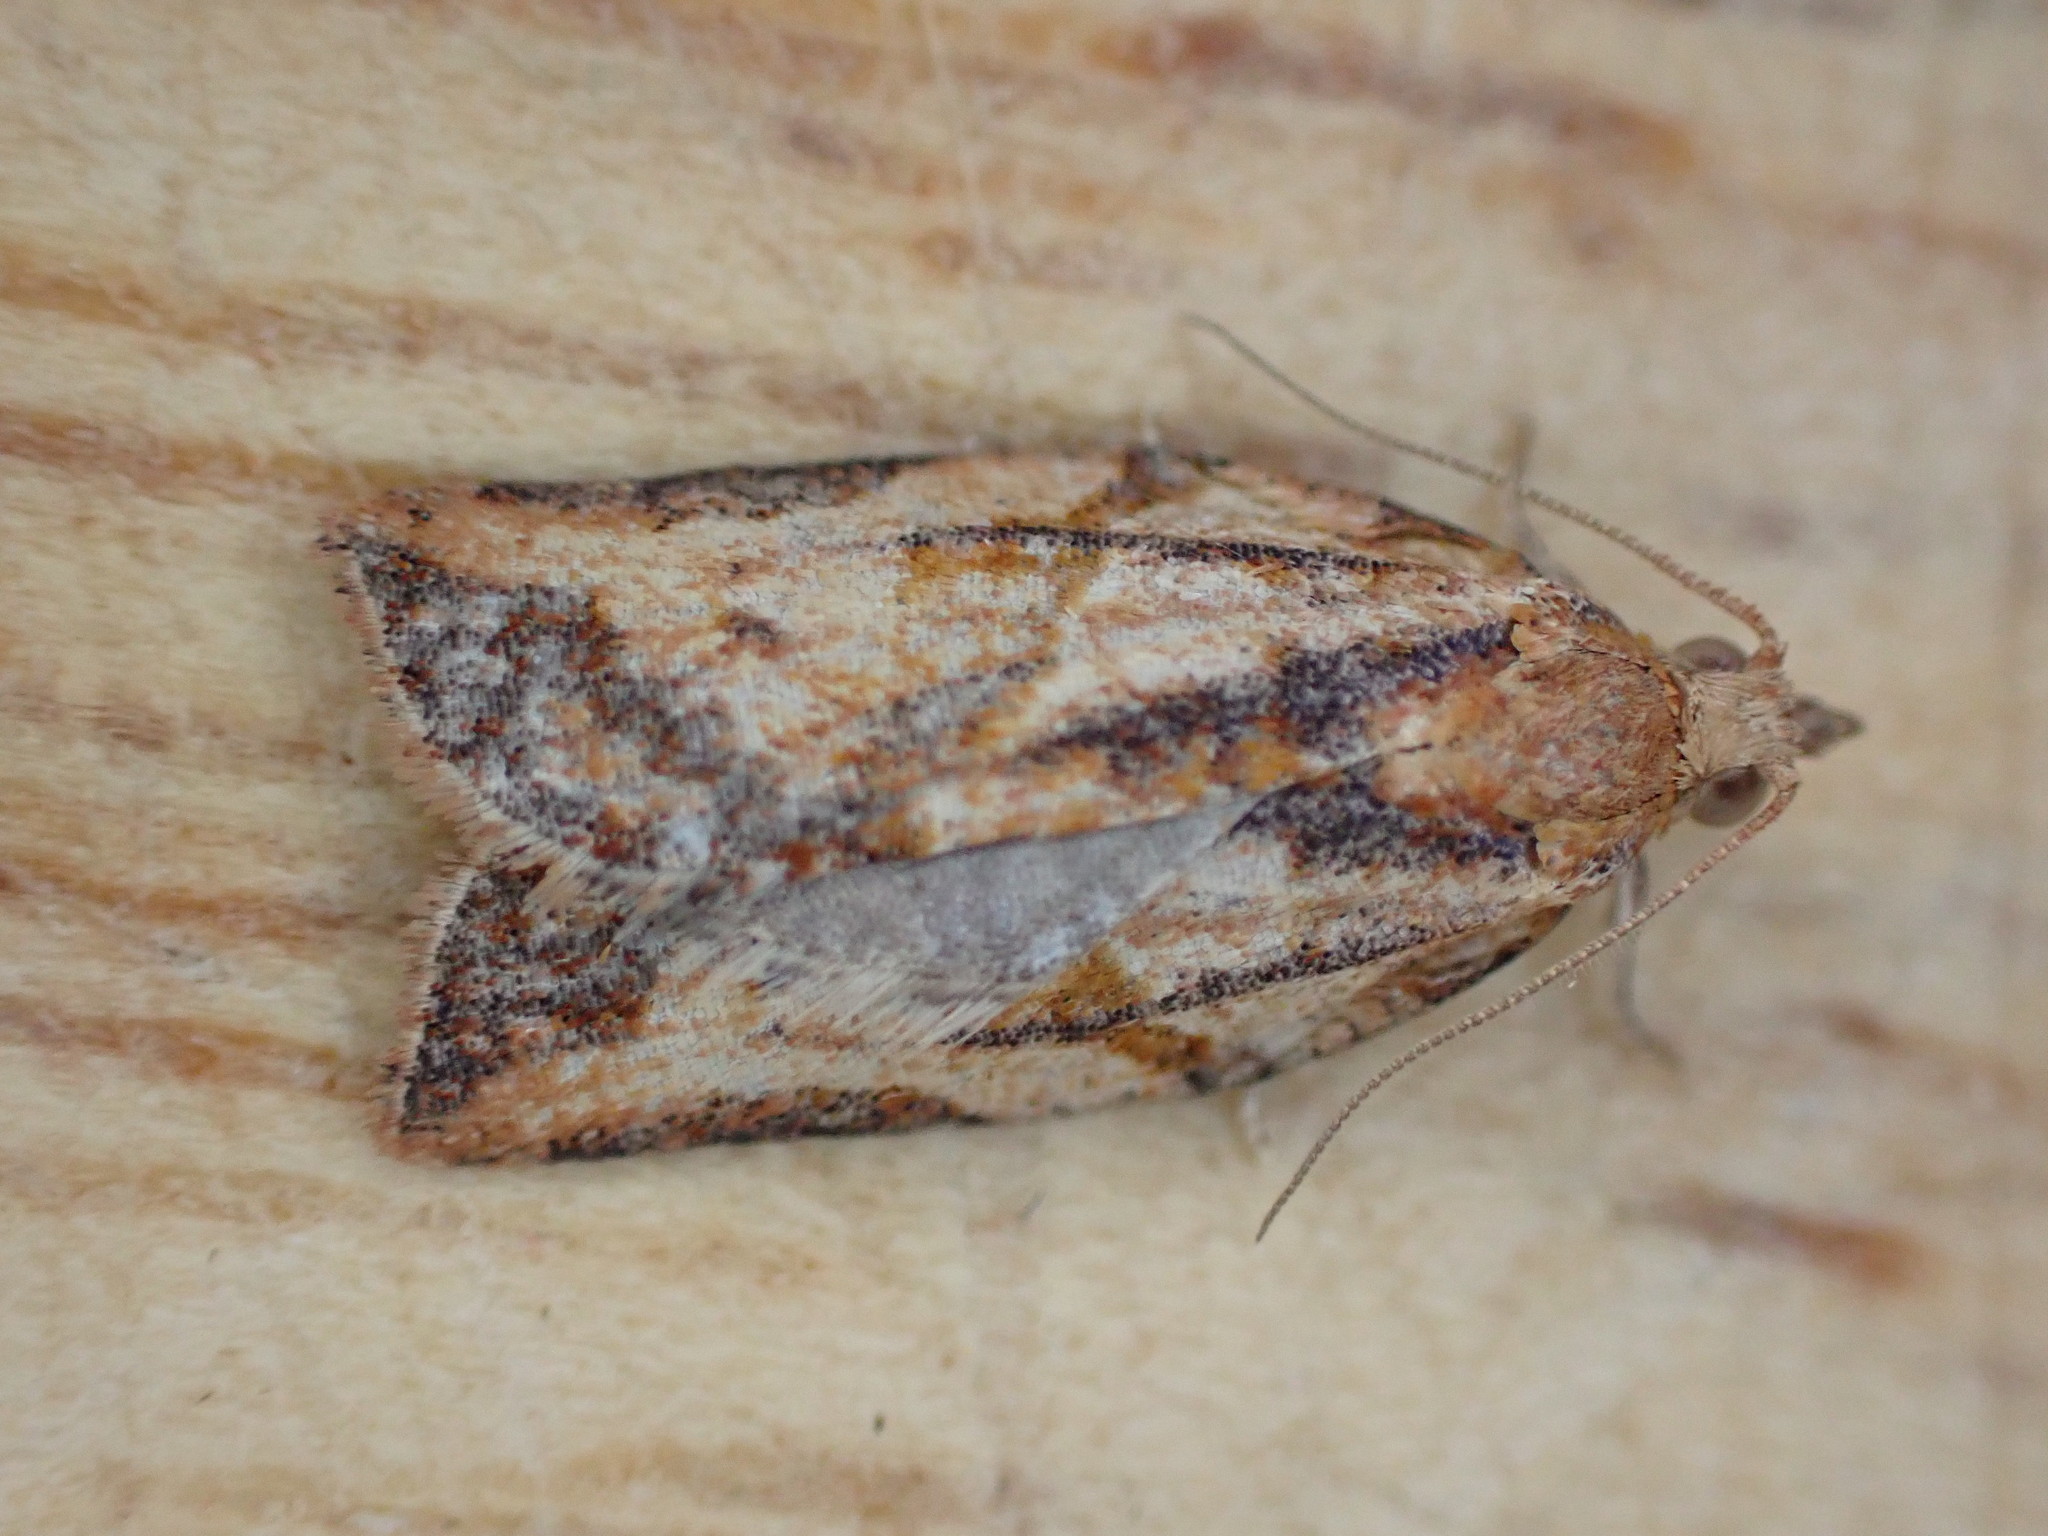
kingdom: Animalia
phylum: Arthropoda
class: Insecta
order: Lepidoptera
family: Tortricidae
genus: Epiphyas
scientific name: Epiphyas postvittana
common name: Light brown apple moth
